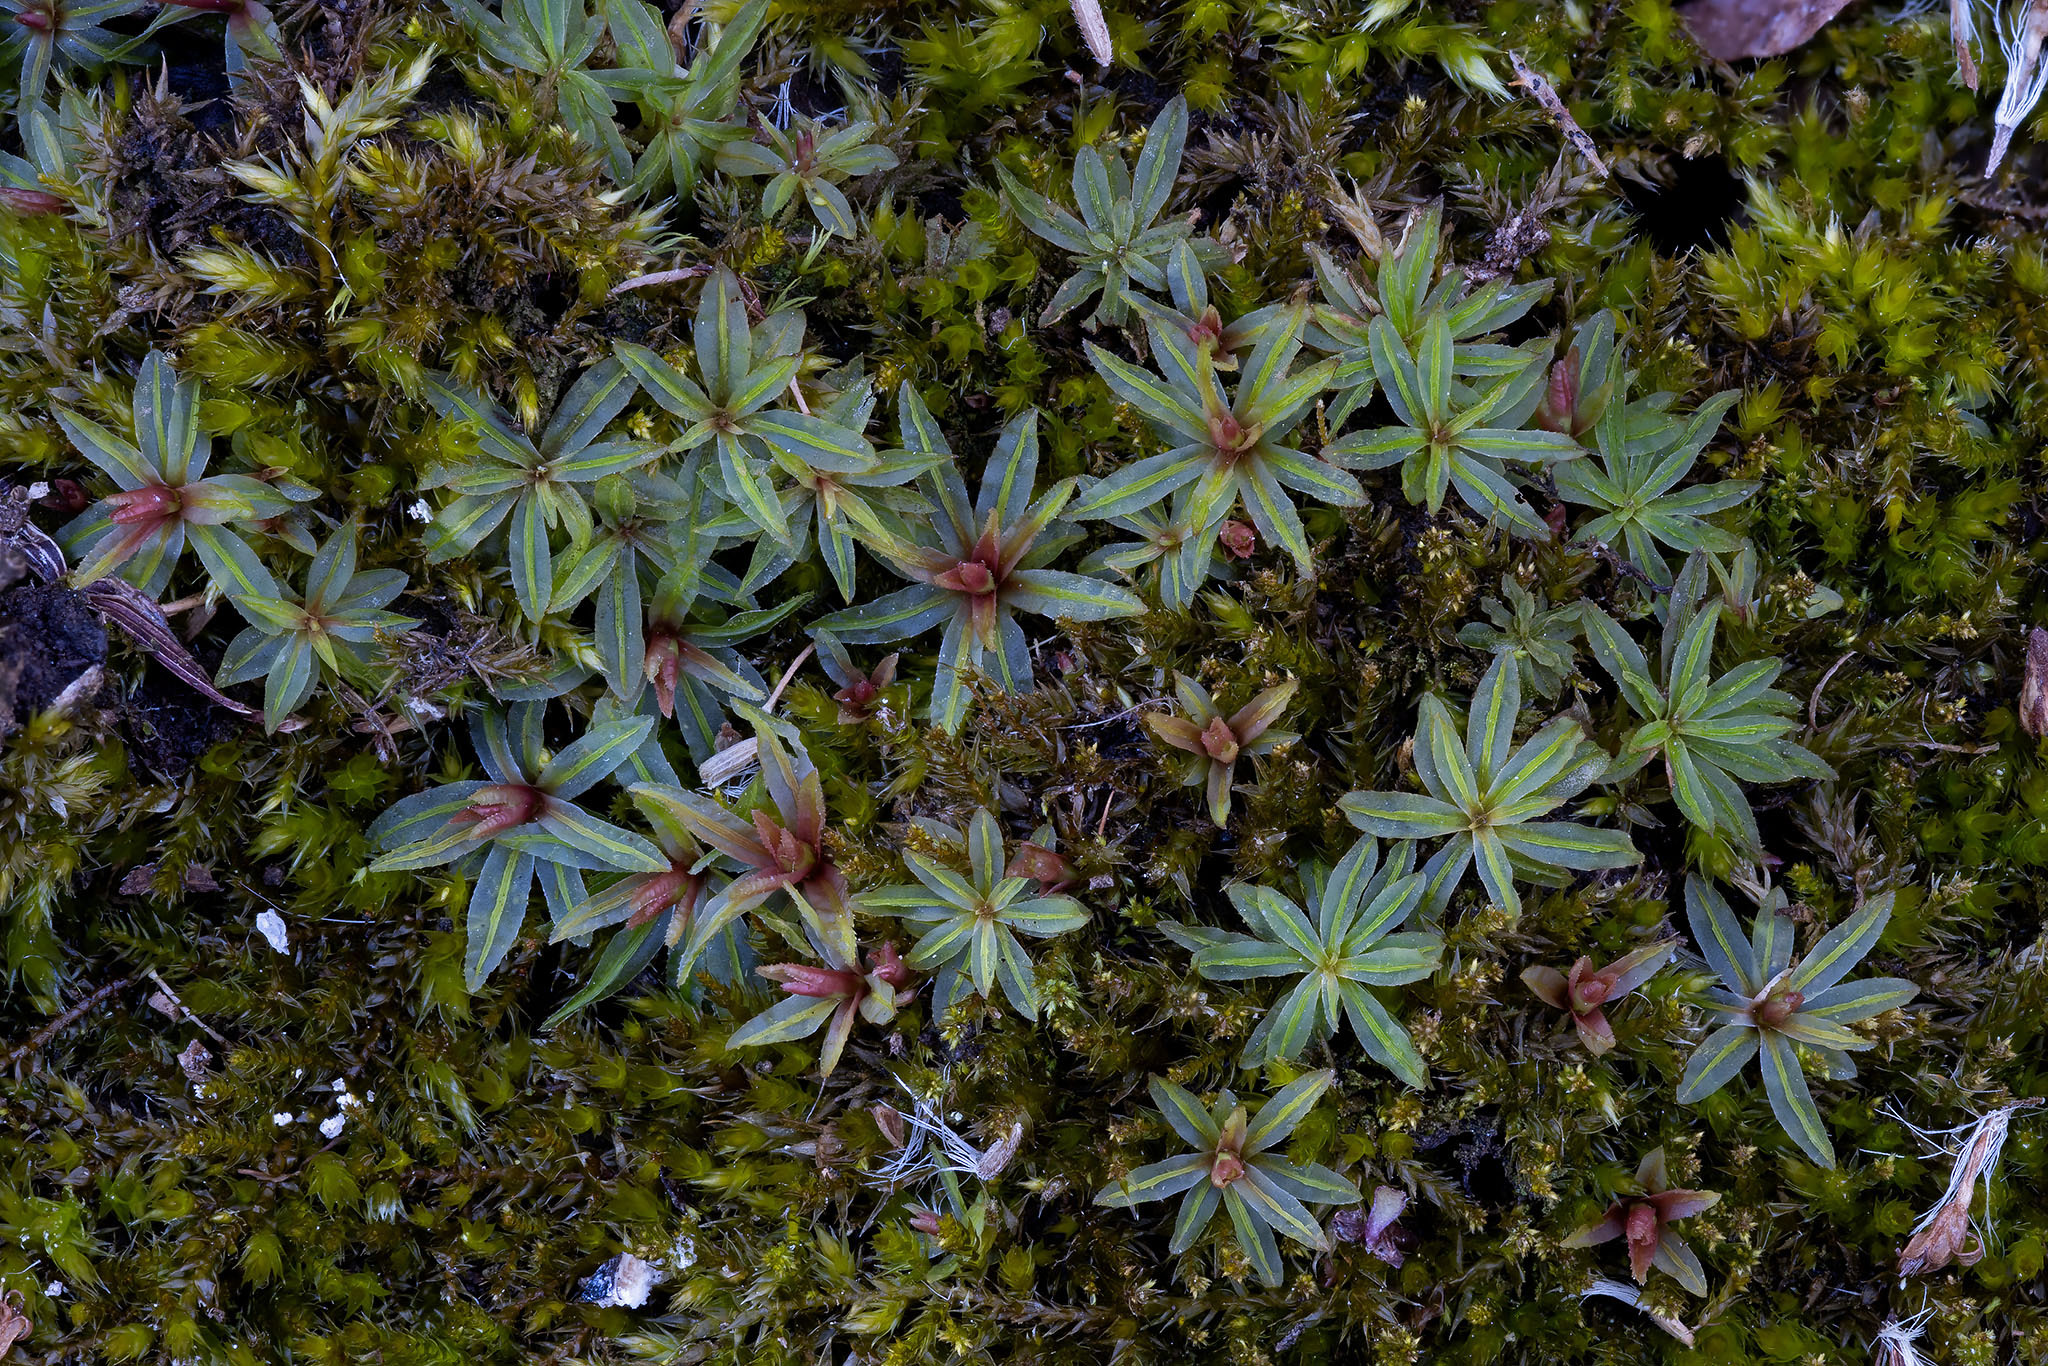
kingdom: Plantae
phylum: Bryophyta
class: Polytrichopsida
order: Polytrichales
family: Polytrichaceae
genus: Atrichum
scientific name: Atrichum tenellum
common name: Slender smoothcap moss
